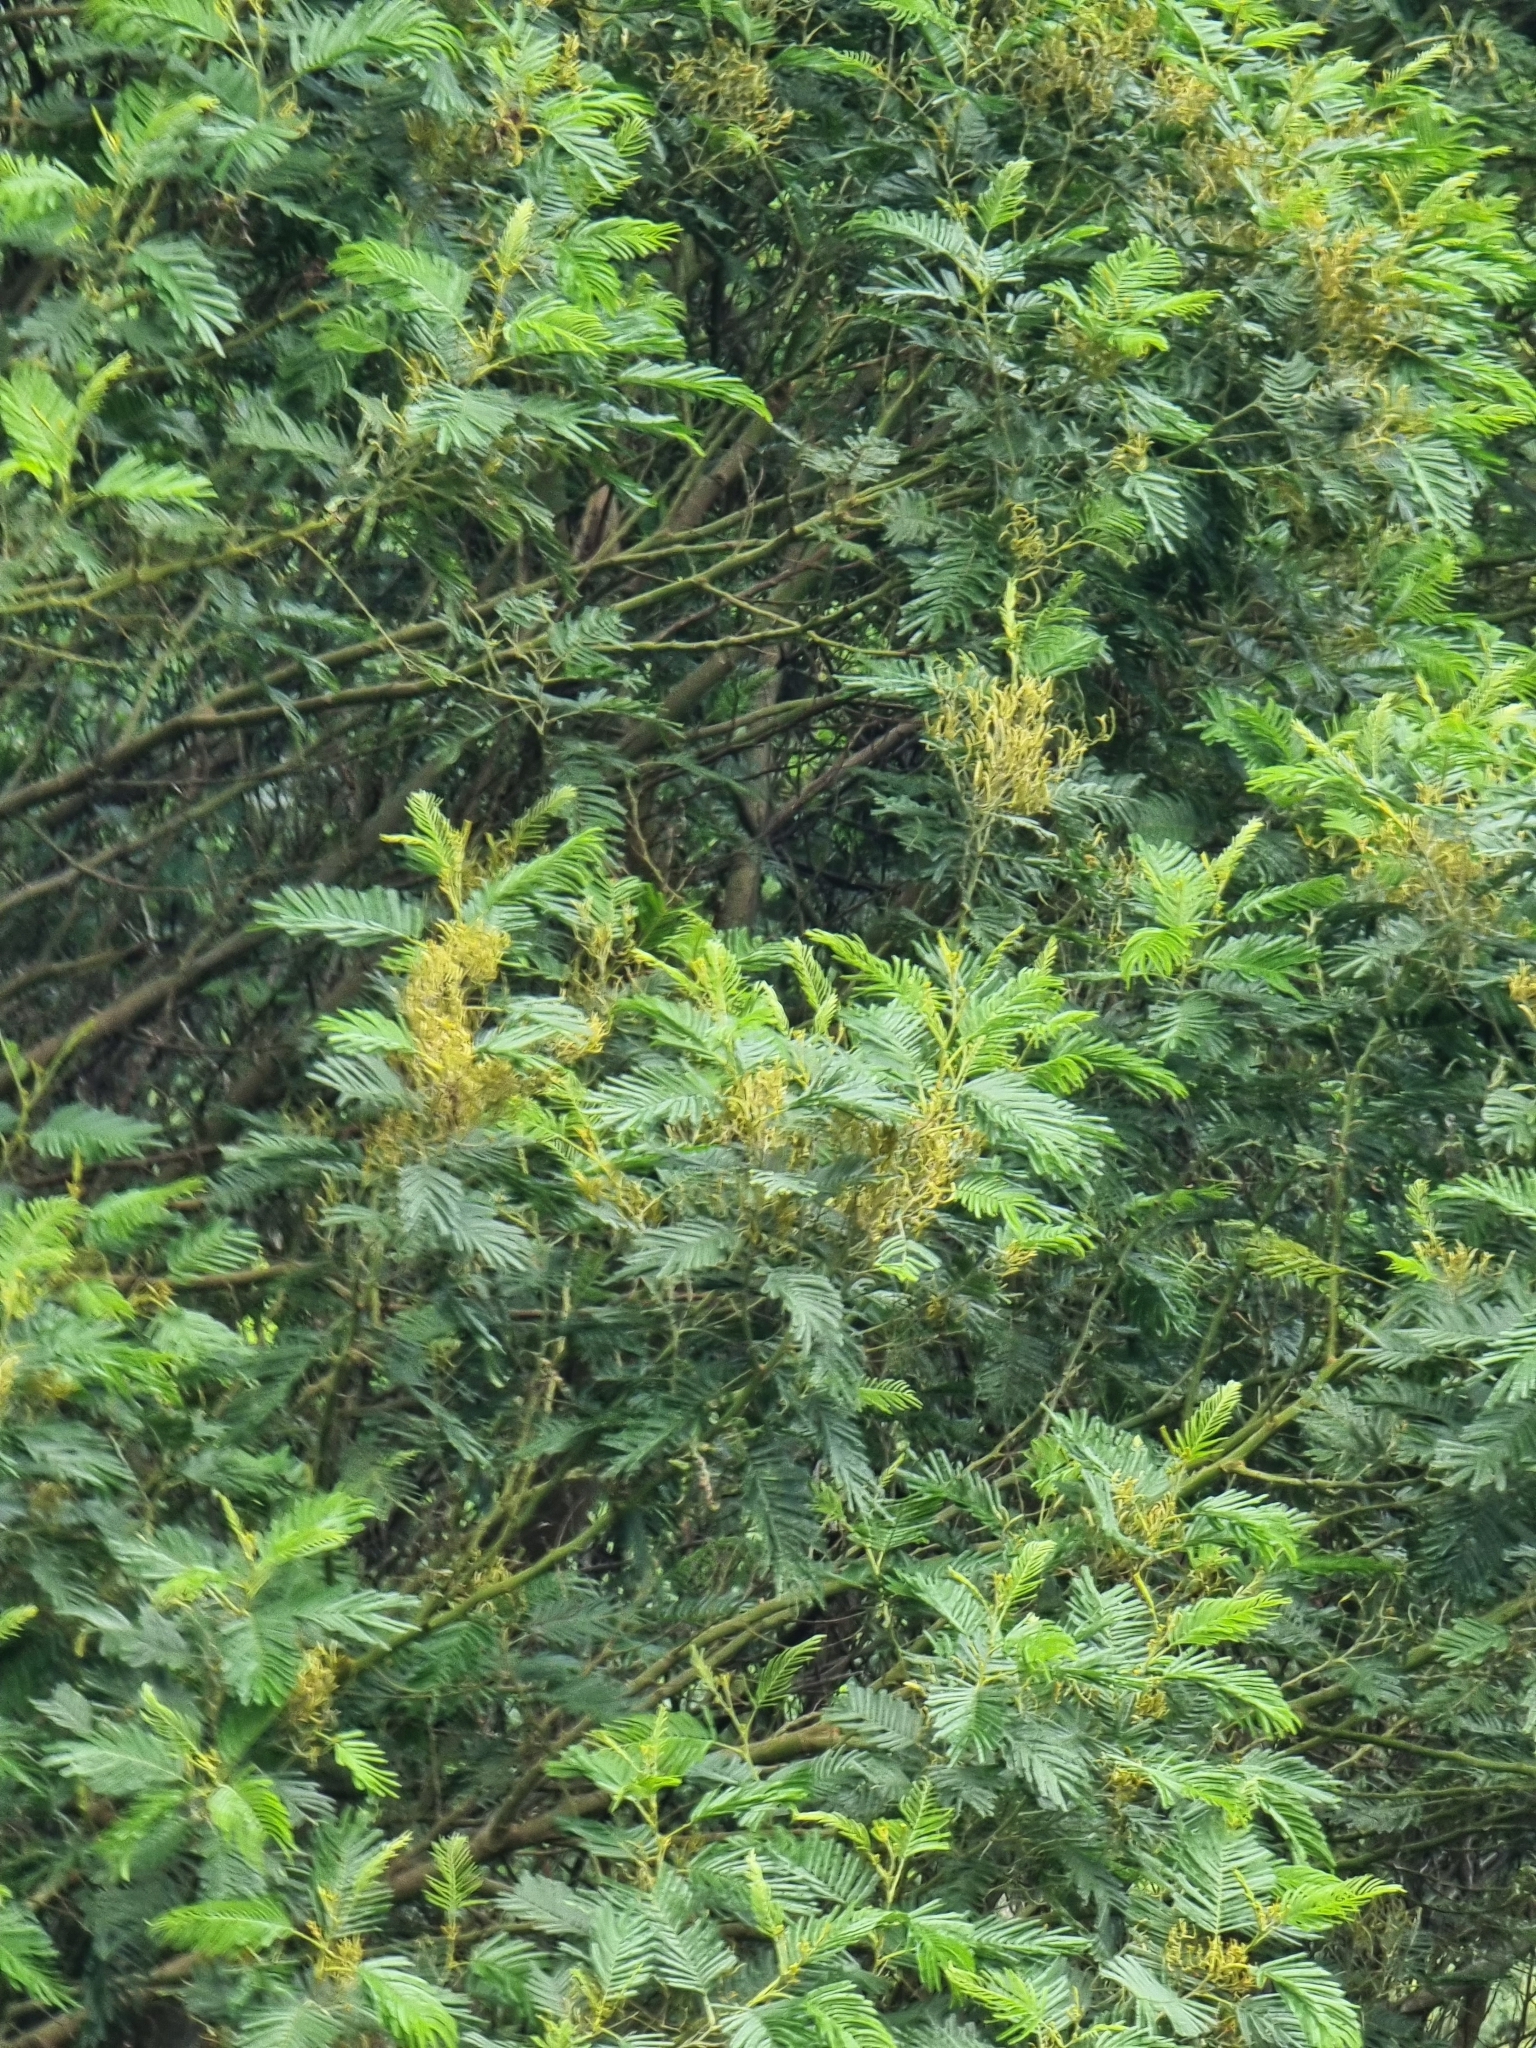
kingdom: Plantae
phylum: Tracheophyta
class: Magnoliopsida
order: Fabales
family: Fabaceae
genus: Acacia
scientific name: Acacia mearnsii
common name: Black wattle
